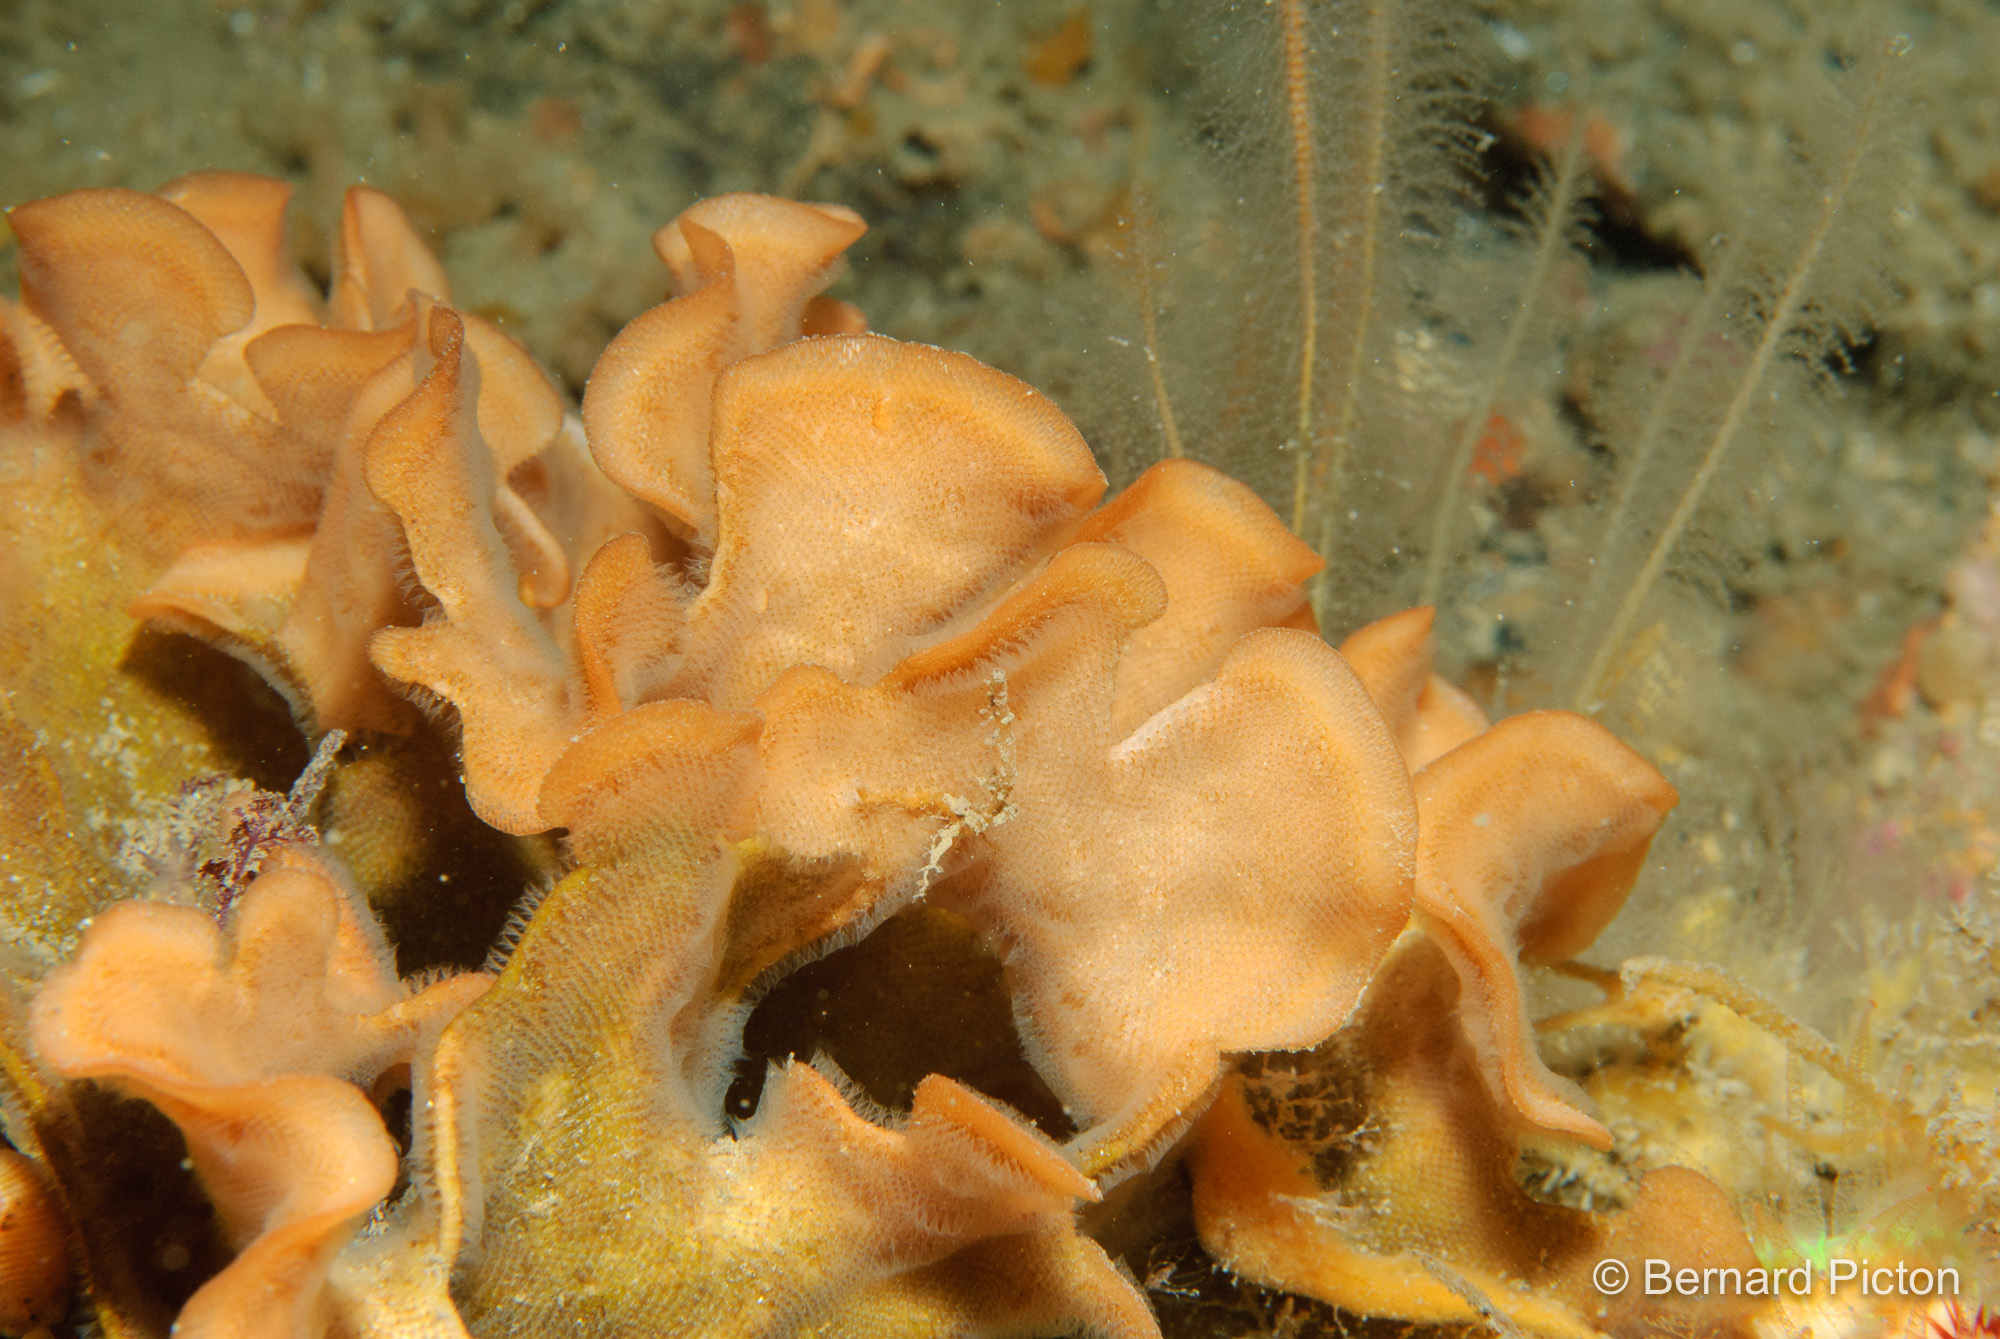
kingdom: Animalia
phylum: Bryozoa
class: Gymnolaemata
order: Cheilostomatida
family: Bitectiporidae
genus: Pentapora
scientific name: Pentapora foliacea
